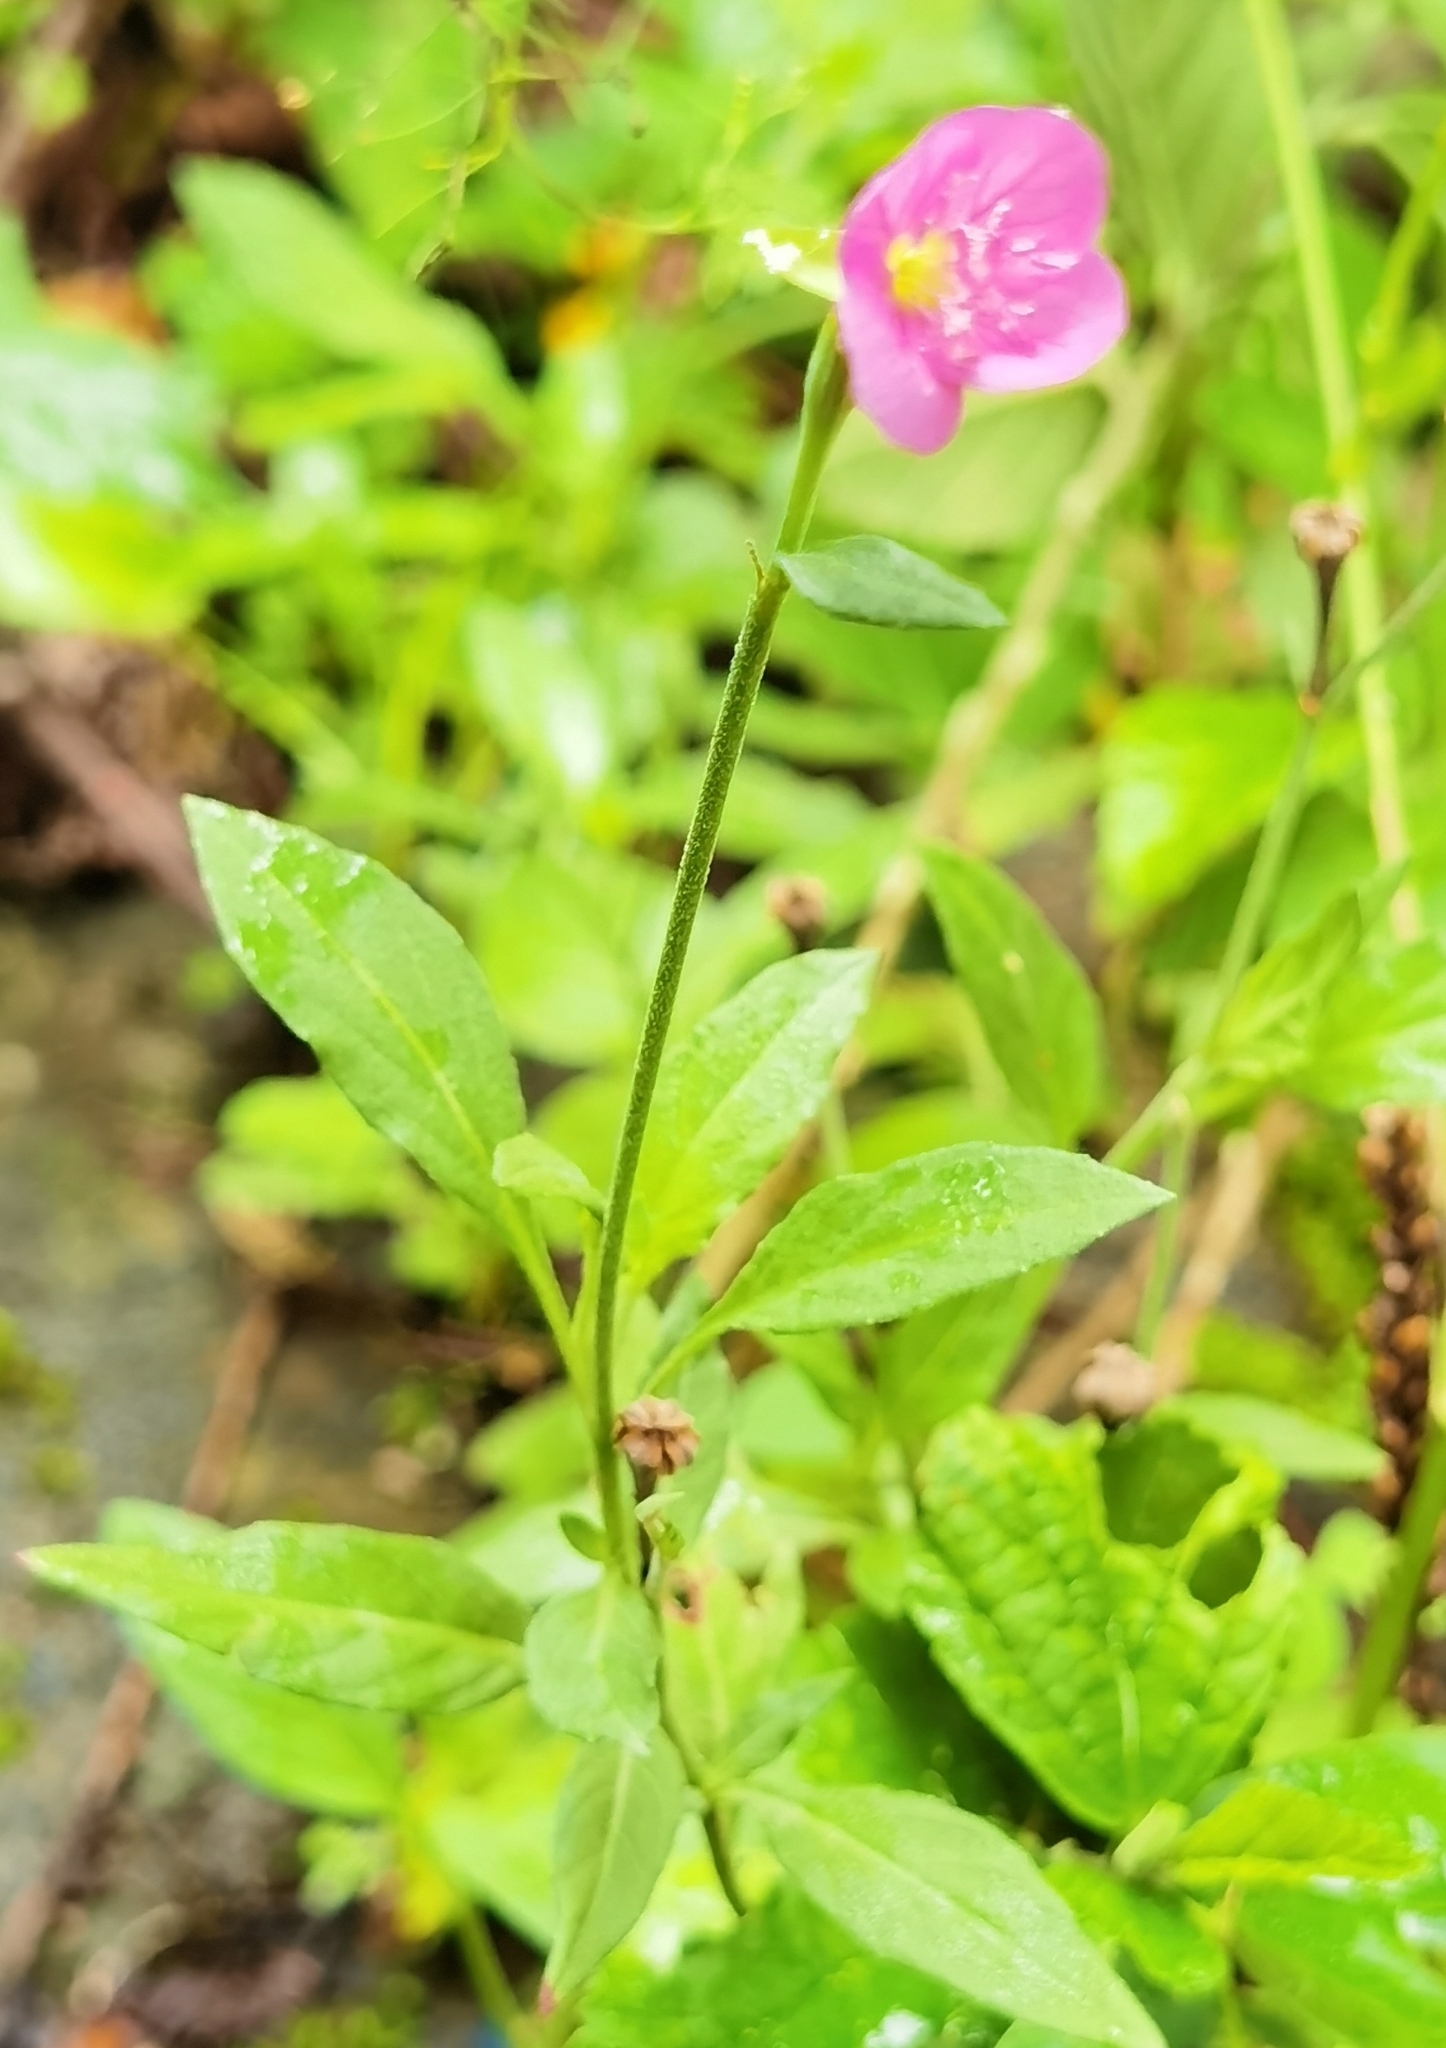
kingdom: Plantae
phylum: Tracheophyta
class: Magnoliopsida
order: Myrtales
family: Onagraceae
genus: Oenothera
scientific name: Oenothera rosea
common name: Rosy evening-primrose
